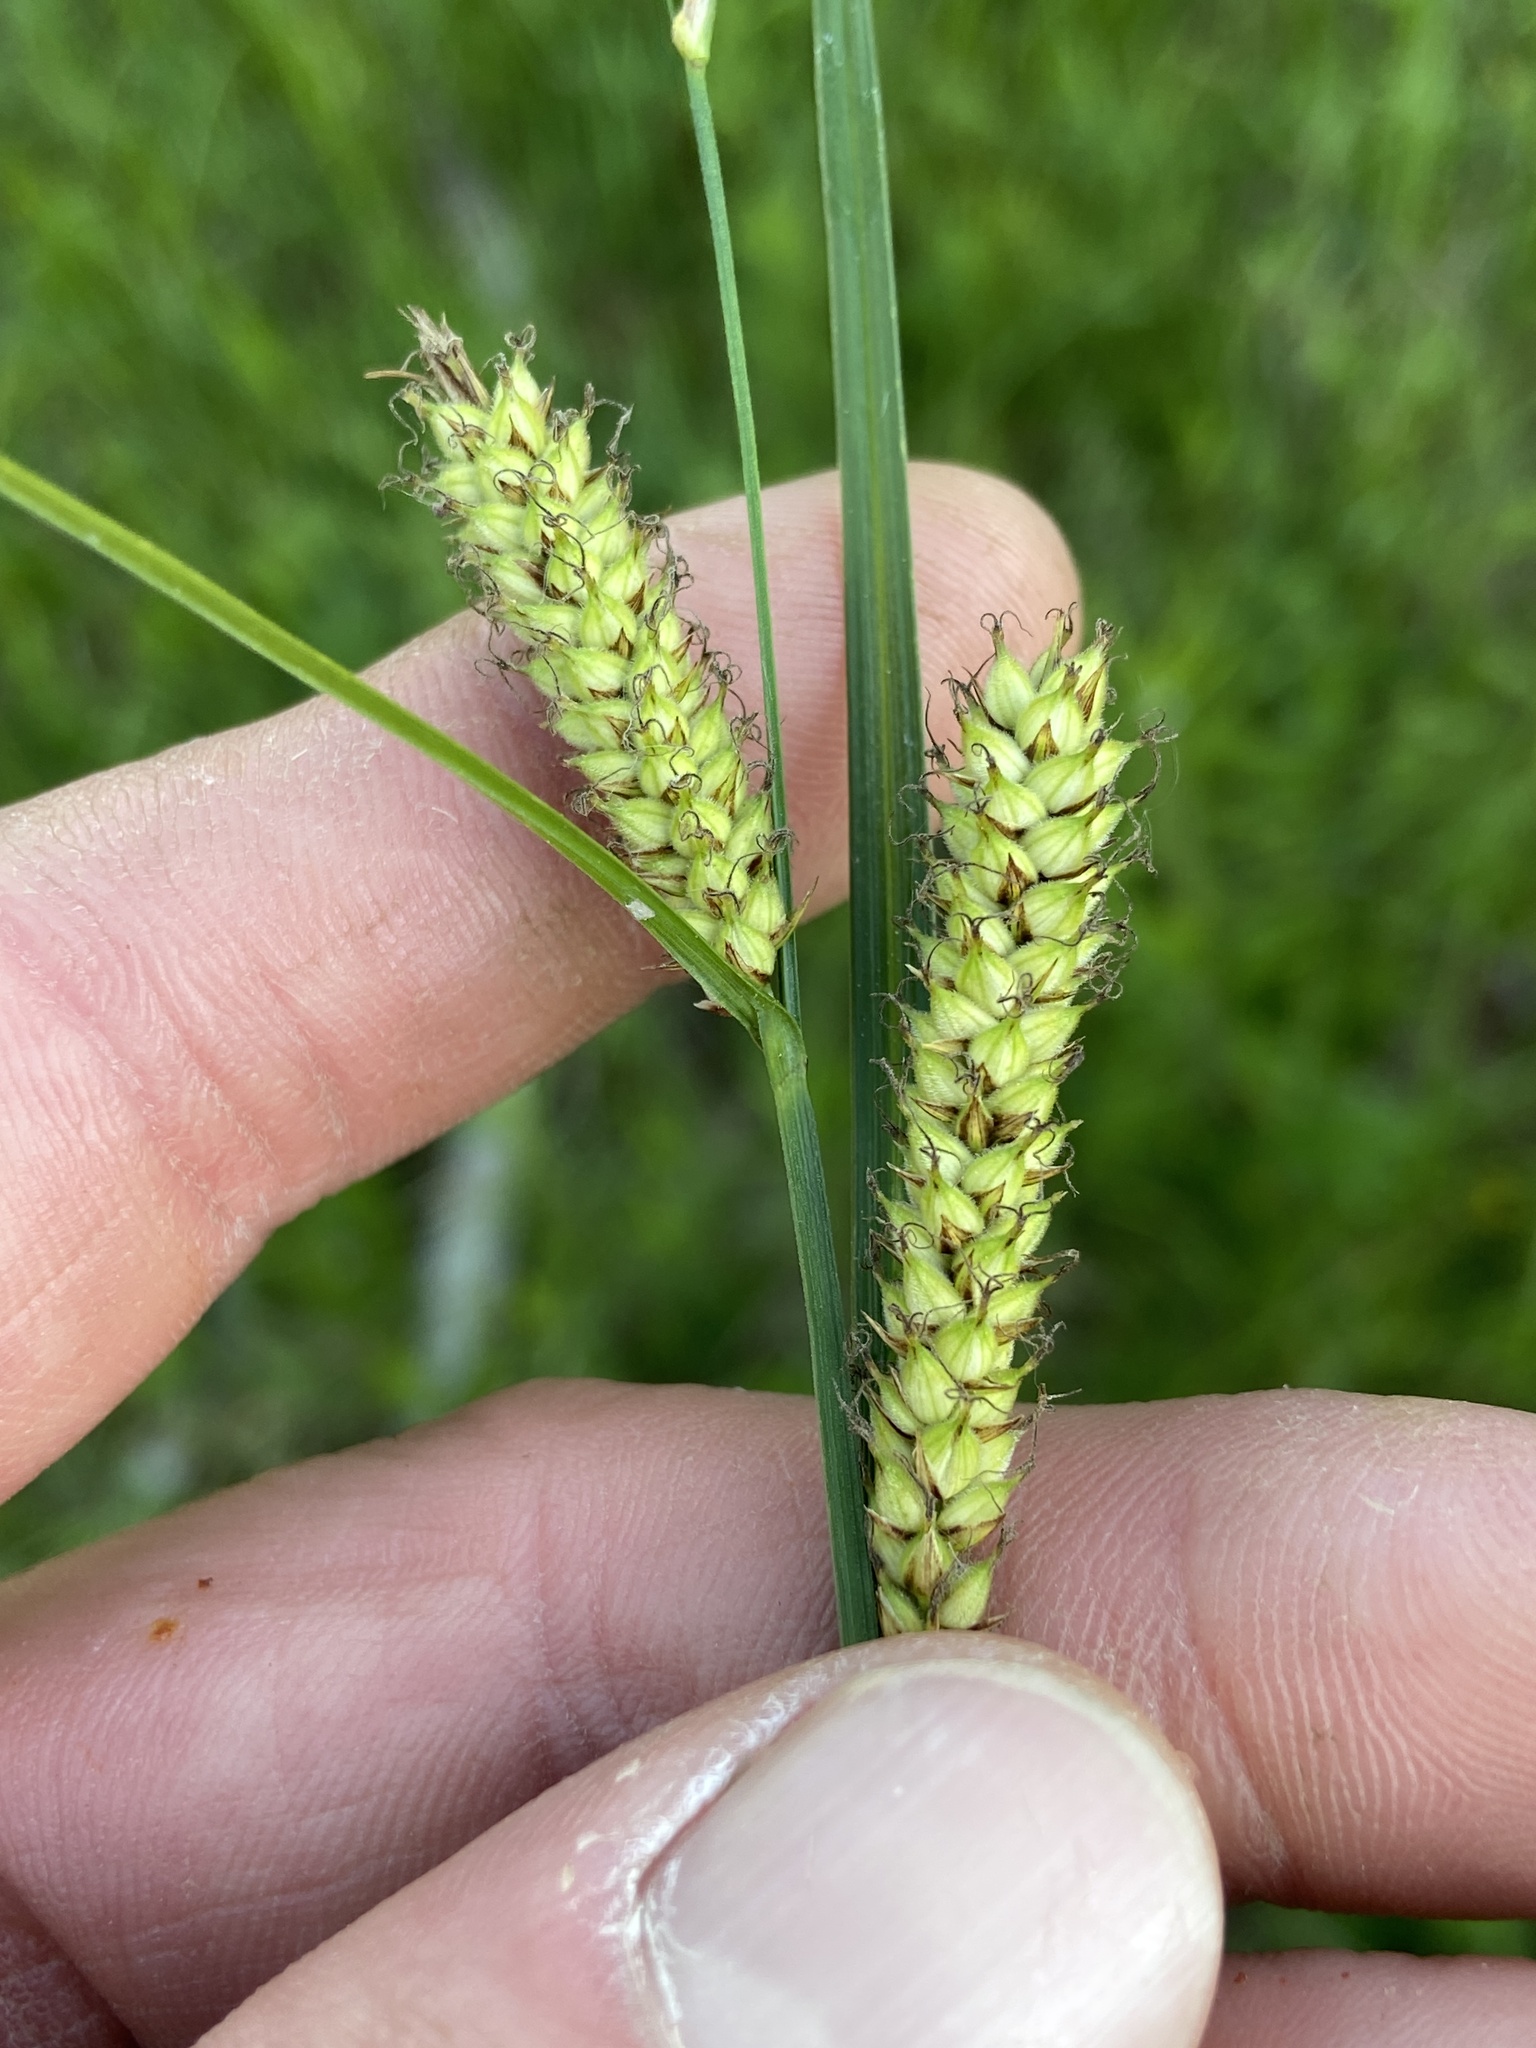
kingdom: Plantae
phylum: Tracheophyta
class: Liliopsida
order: Poales
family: Cyperaceae
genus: Carex
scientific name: Carex pellita
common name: Woolly sedge
